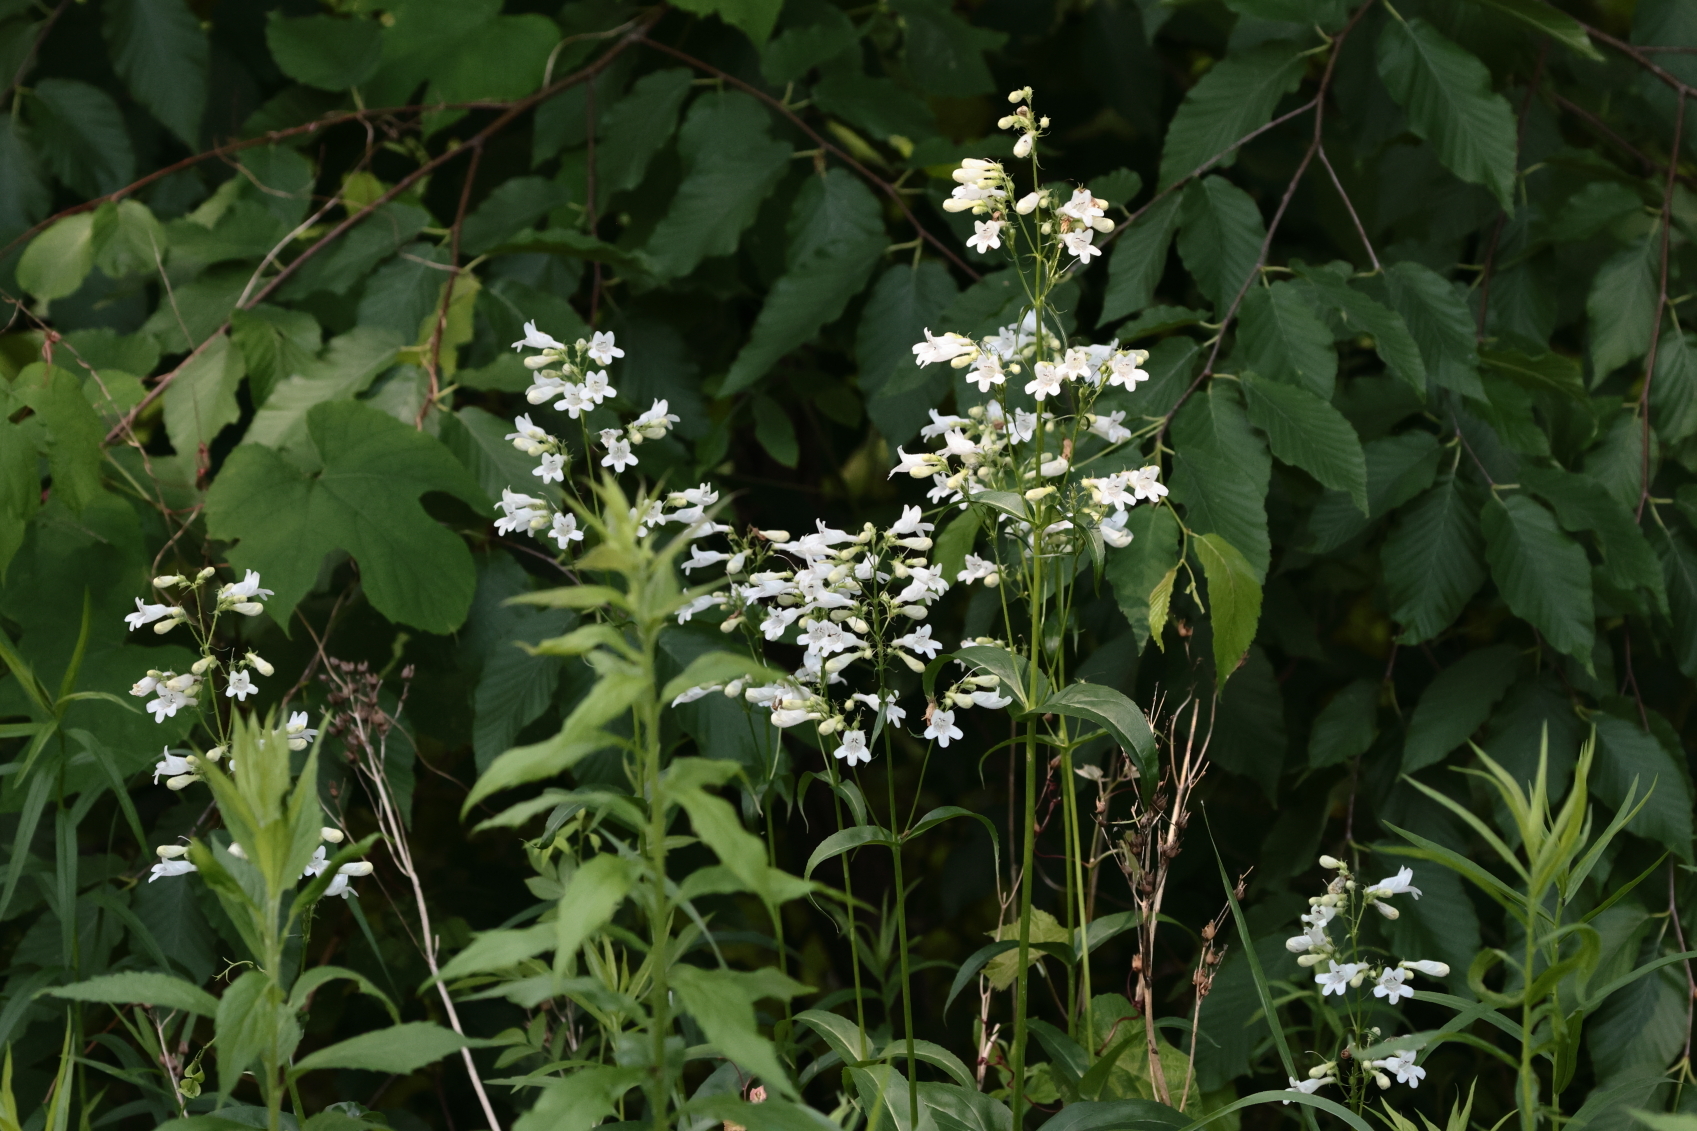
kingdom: Plantae
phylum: Tracheophyta
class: Magnoliopsida
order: Lamiales
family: Plantaginaceae
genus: Penstemon
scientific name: Penstemon digitalis
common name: Foxglove beardtongue
